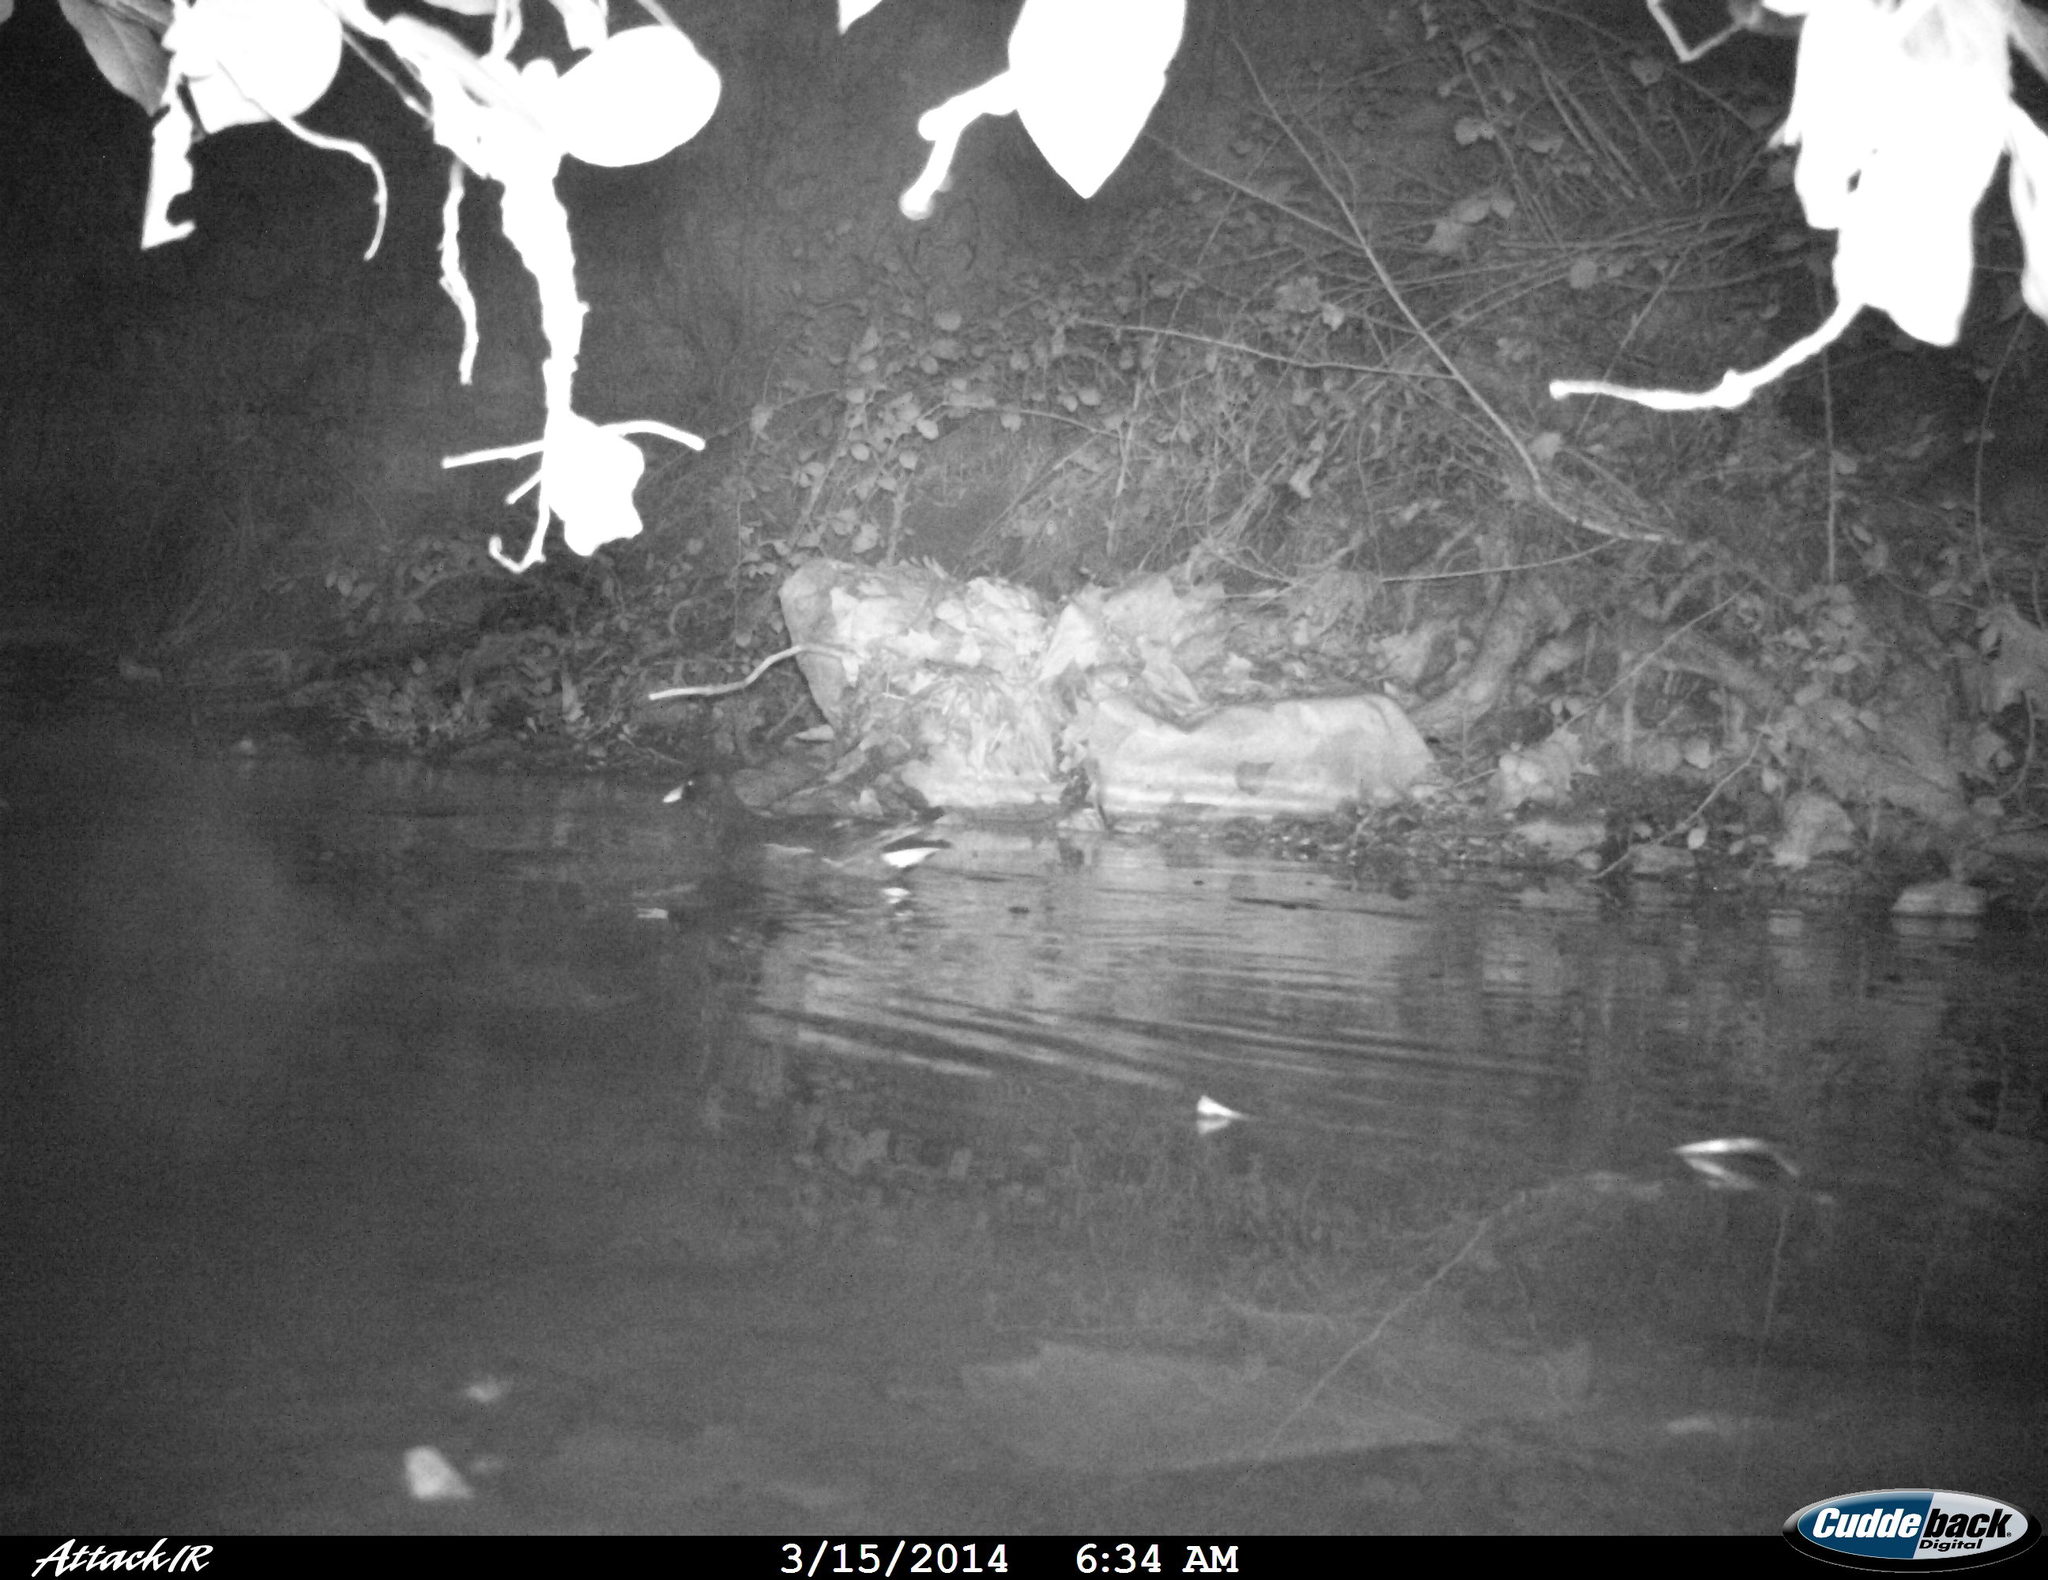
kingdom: Animalia
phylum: Chordata
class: Aves
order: Gruiformes
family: Rallidae
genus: Gallinula
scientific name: Gallinula chloropus
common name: Common moorhen
